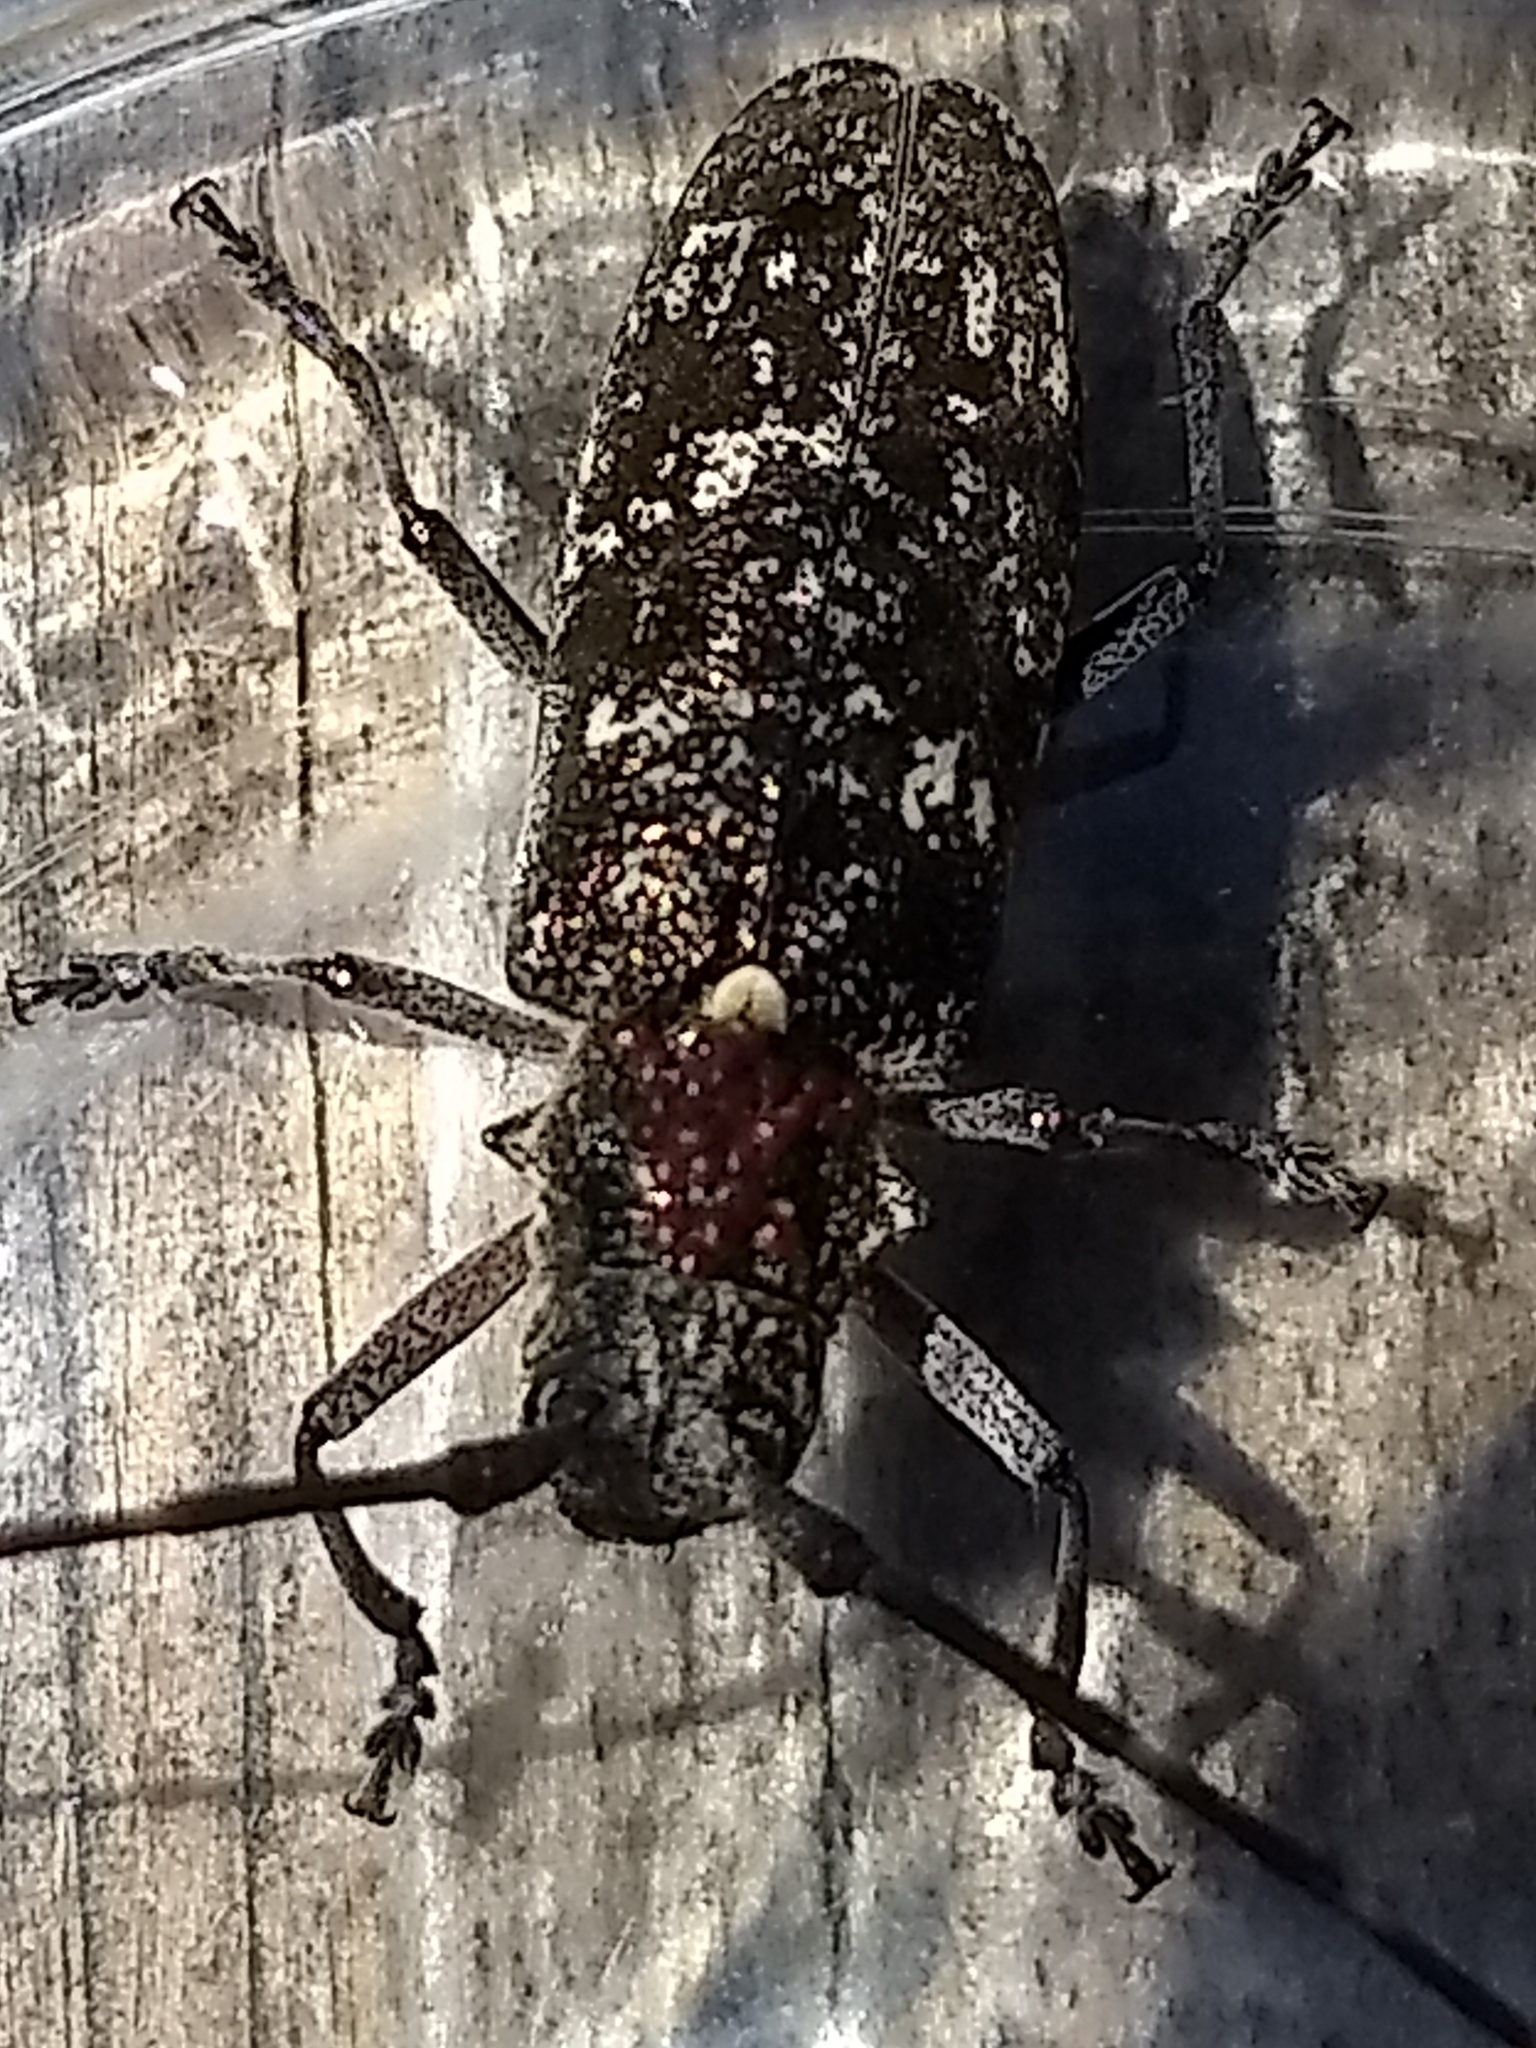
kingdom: Animalia
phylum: Arthropoda
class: Insecta
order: Coleoptera
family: Cerambycidae
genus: Monochamus
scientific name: Monochamus scutellatus
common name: White-spotted sawyer beetle
